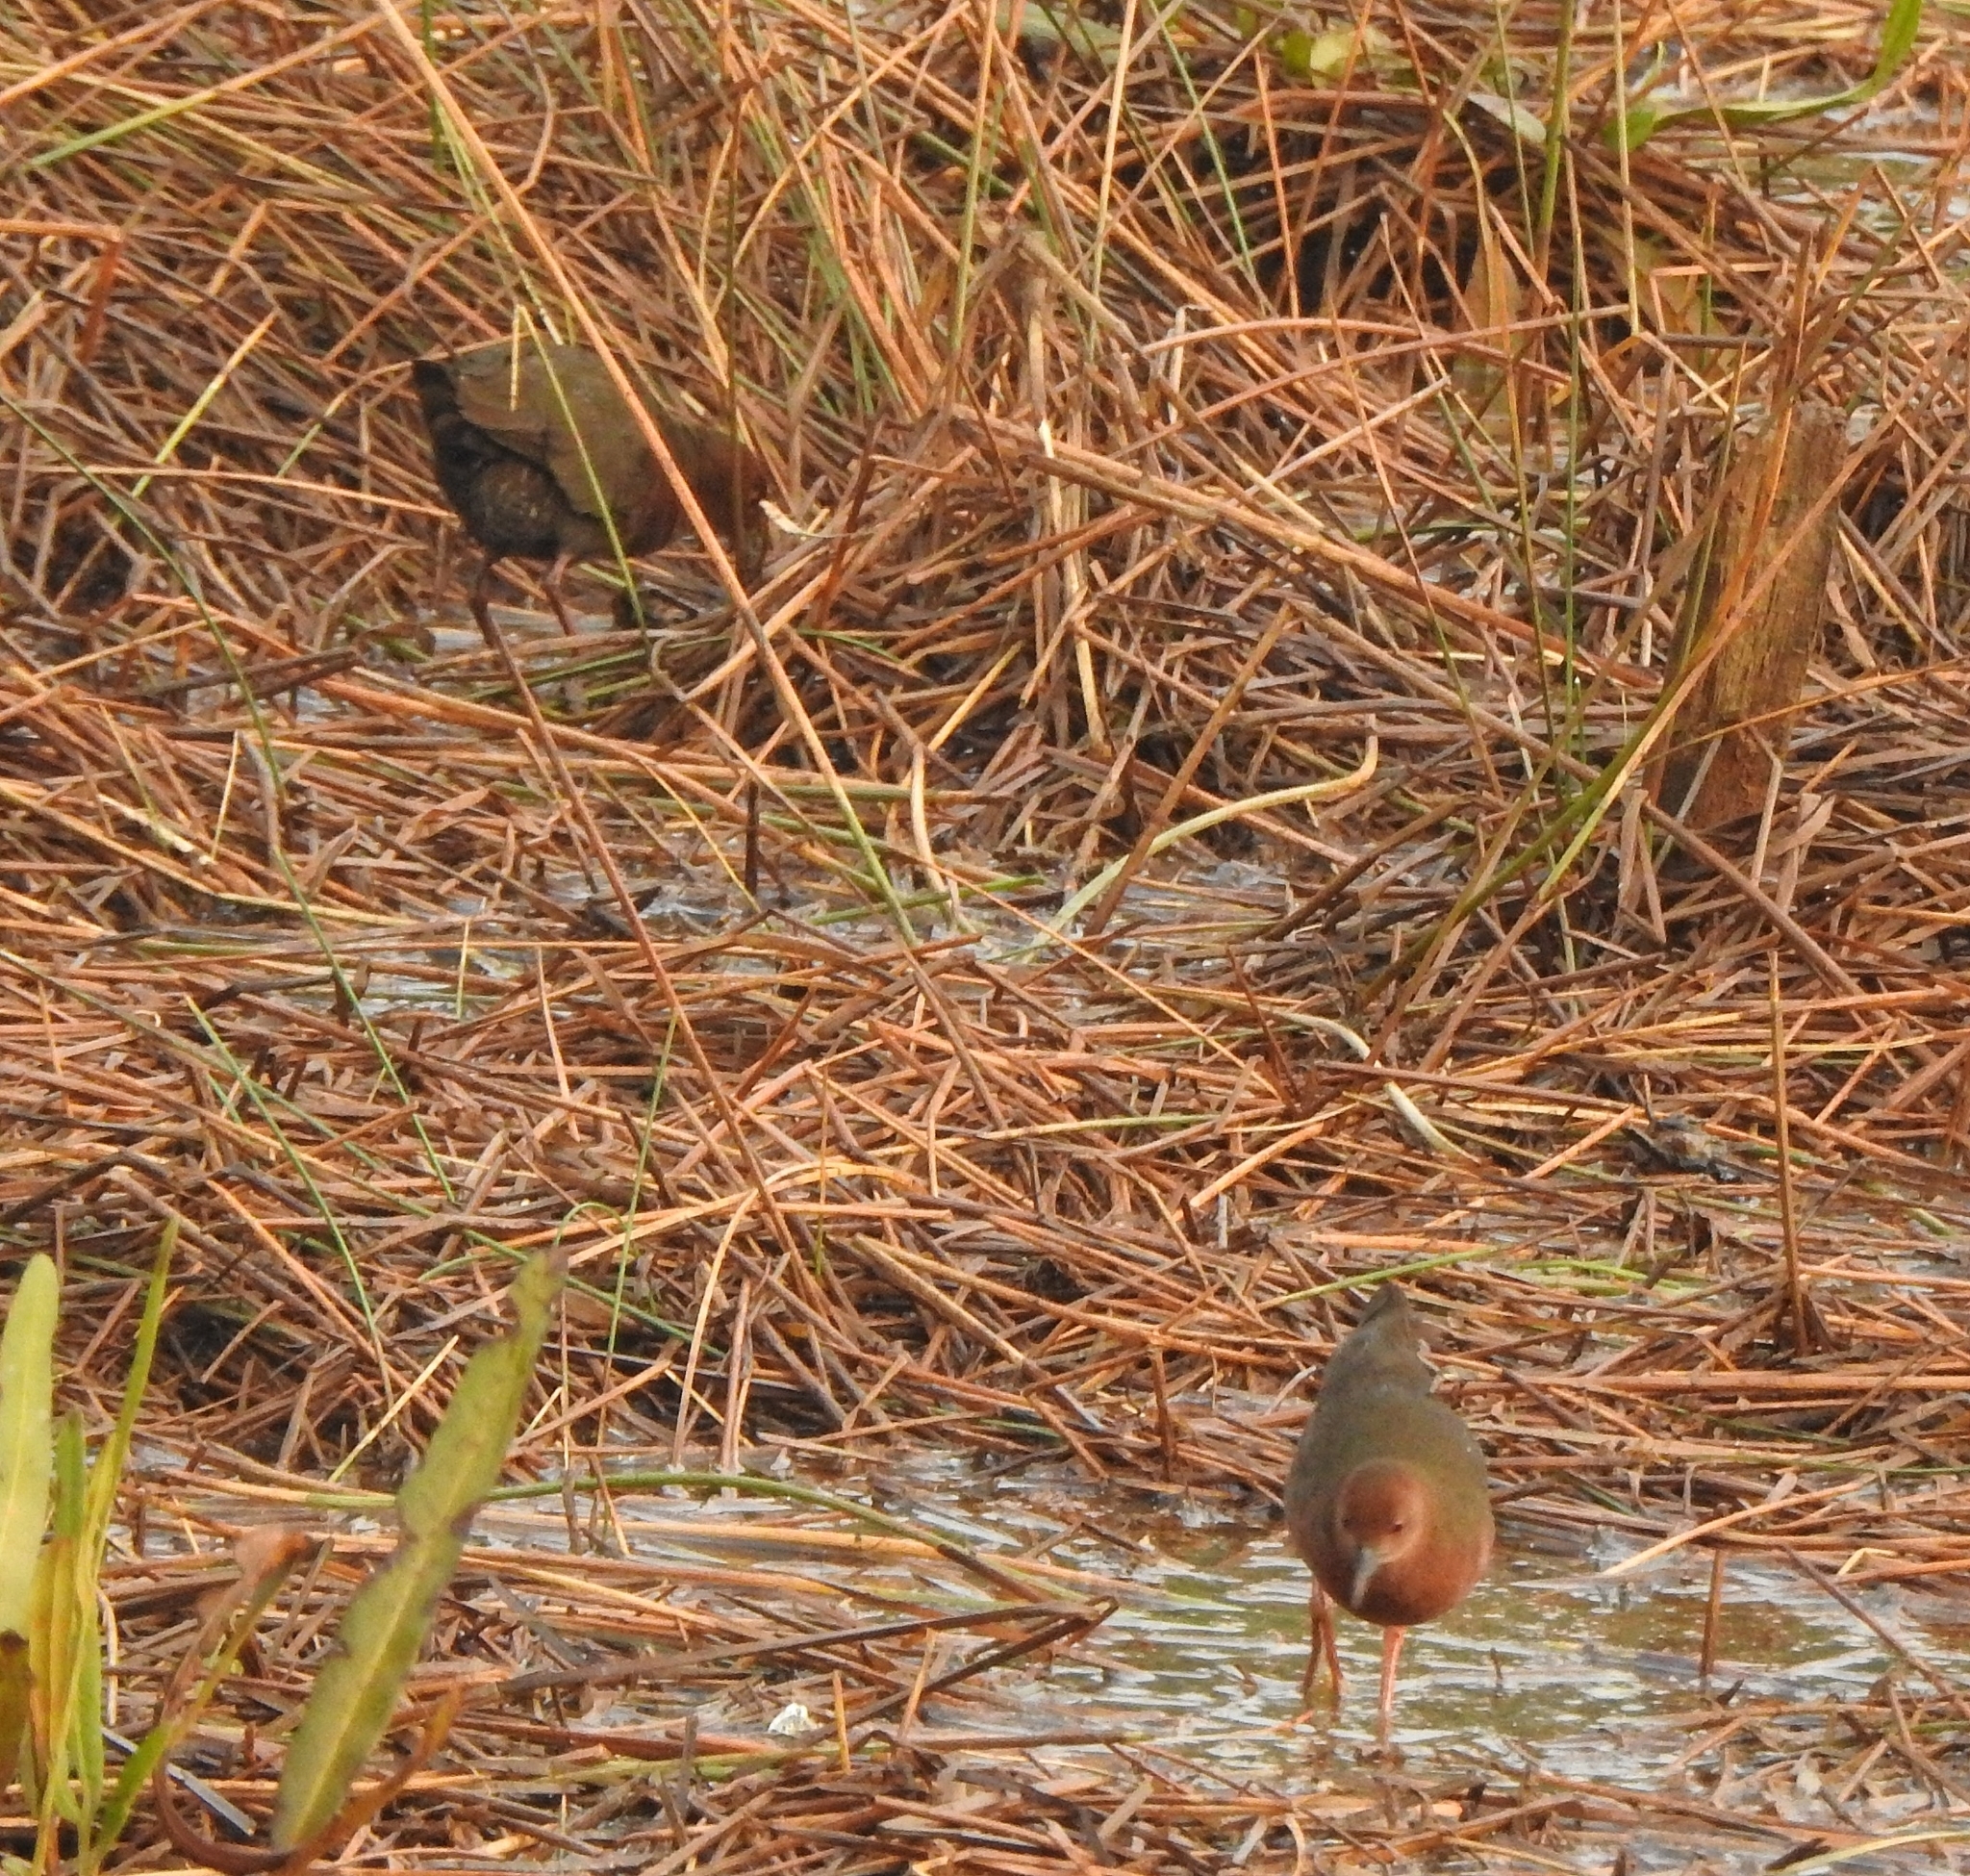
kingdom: Animalia
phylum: Chordata
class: Aves
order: Gruiformes
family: Rallidae
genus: Porzana
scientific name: Porzana fusca
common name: Ruddy-breasted crake
